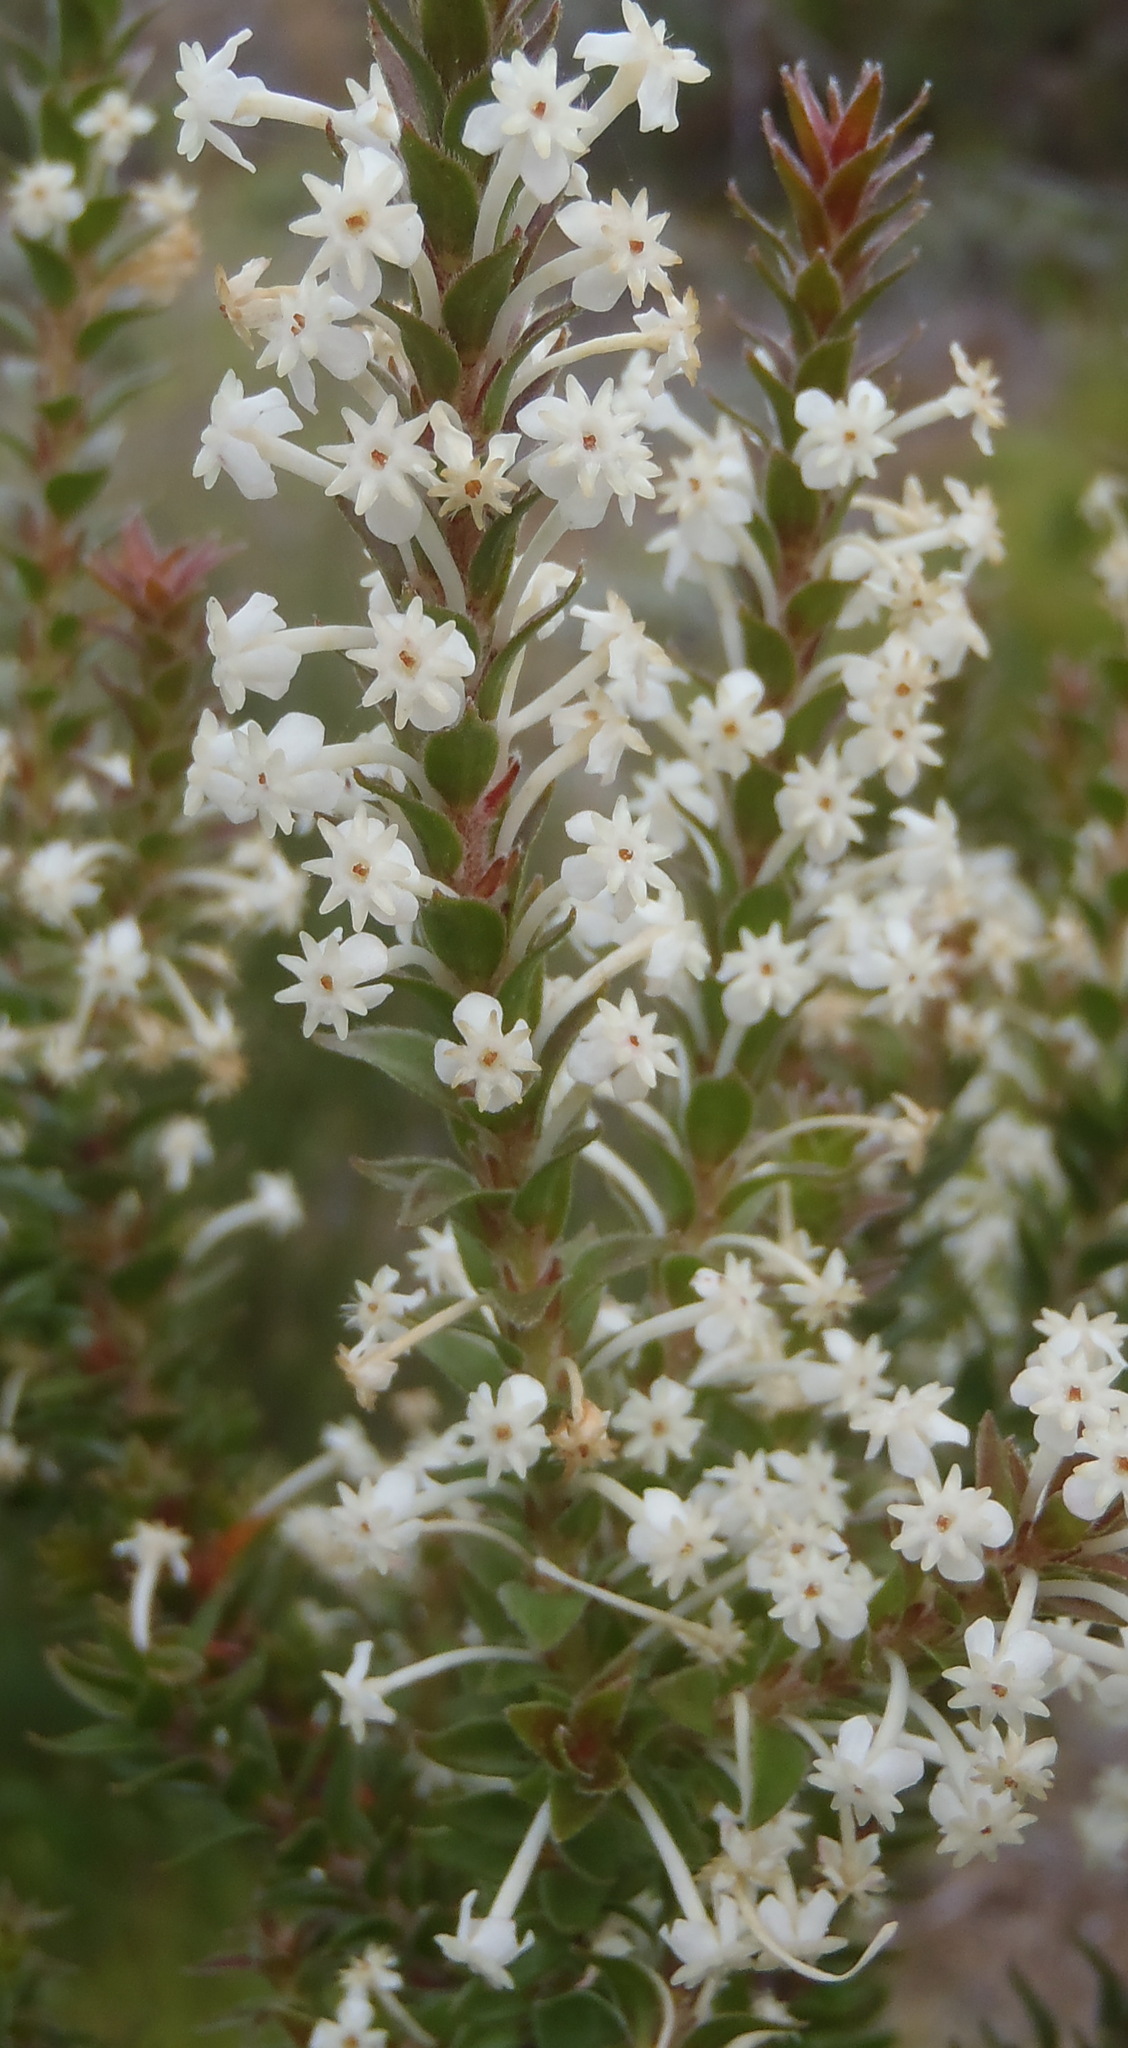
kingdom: Plantae
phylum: Tracheophyta
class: Magnoliopsida
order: Malvales
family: Thymelaeaceae
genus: Struthiola
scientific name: Struthiola hirsuta
